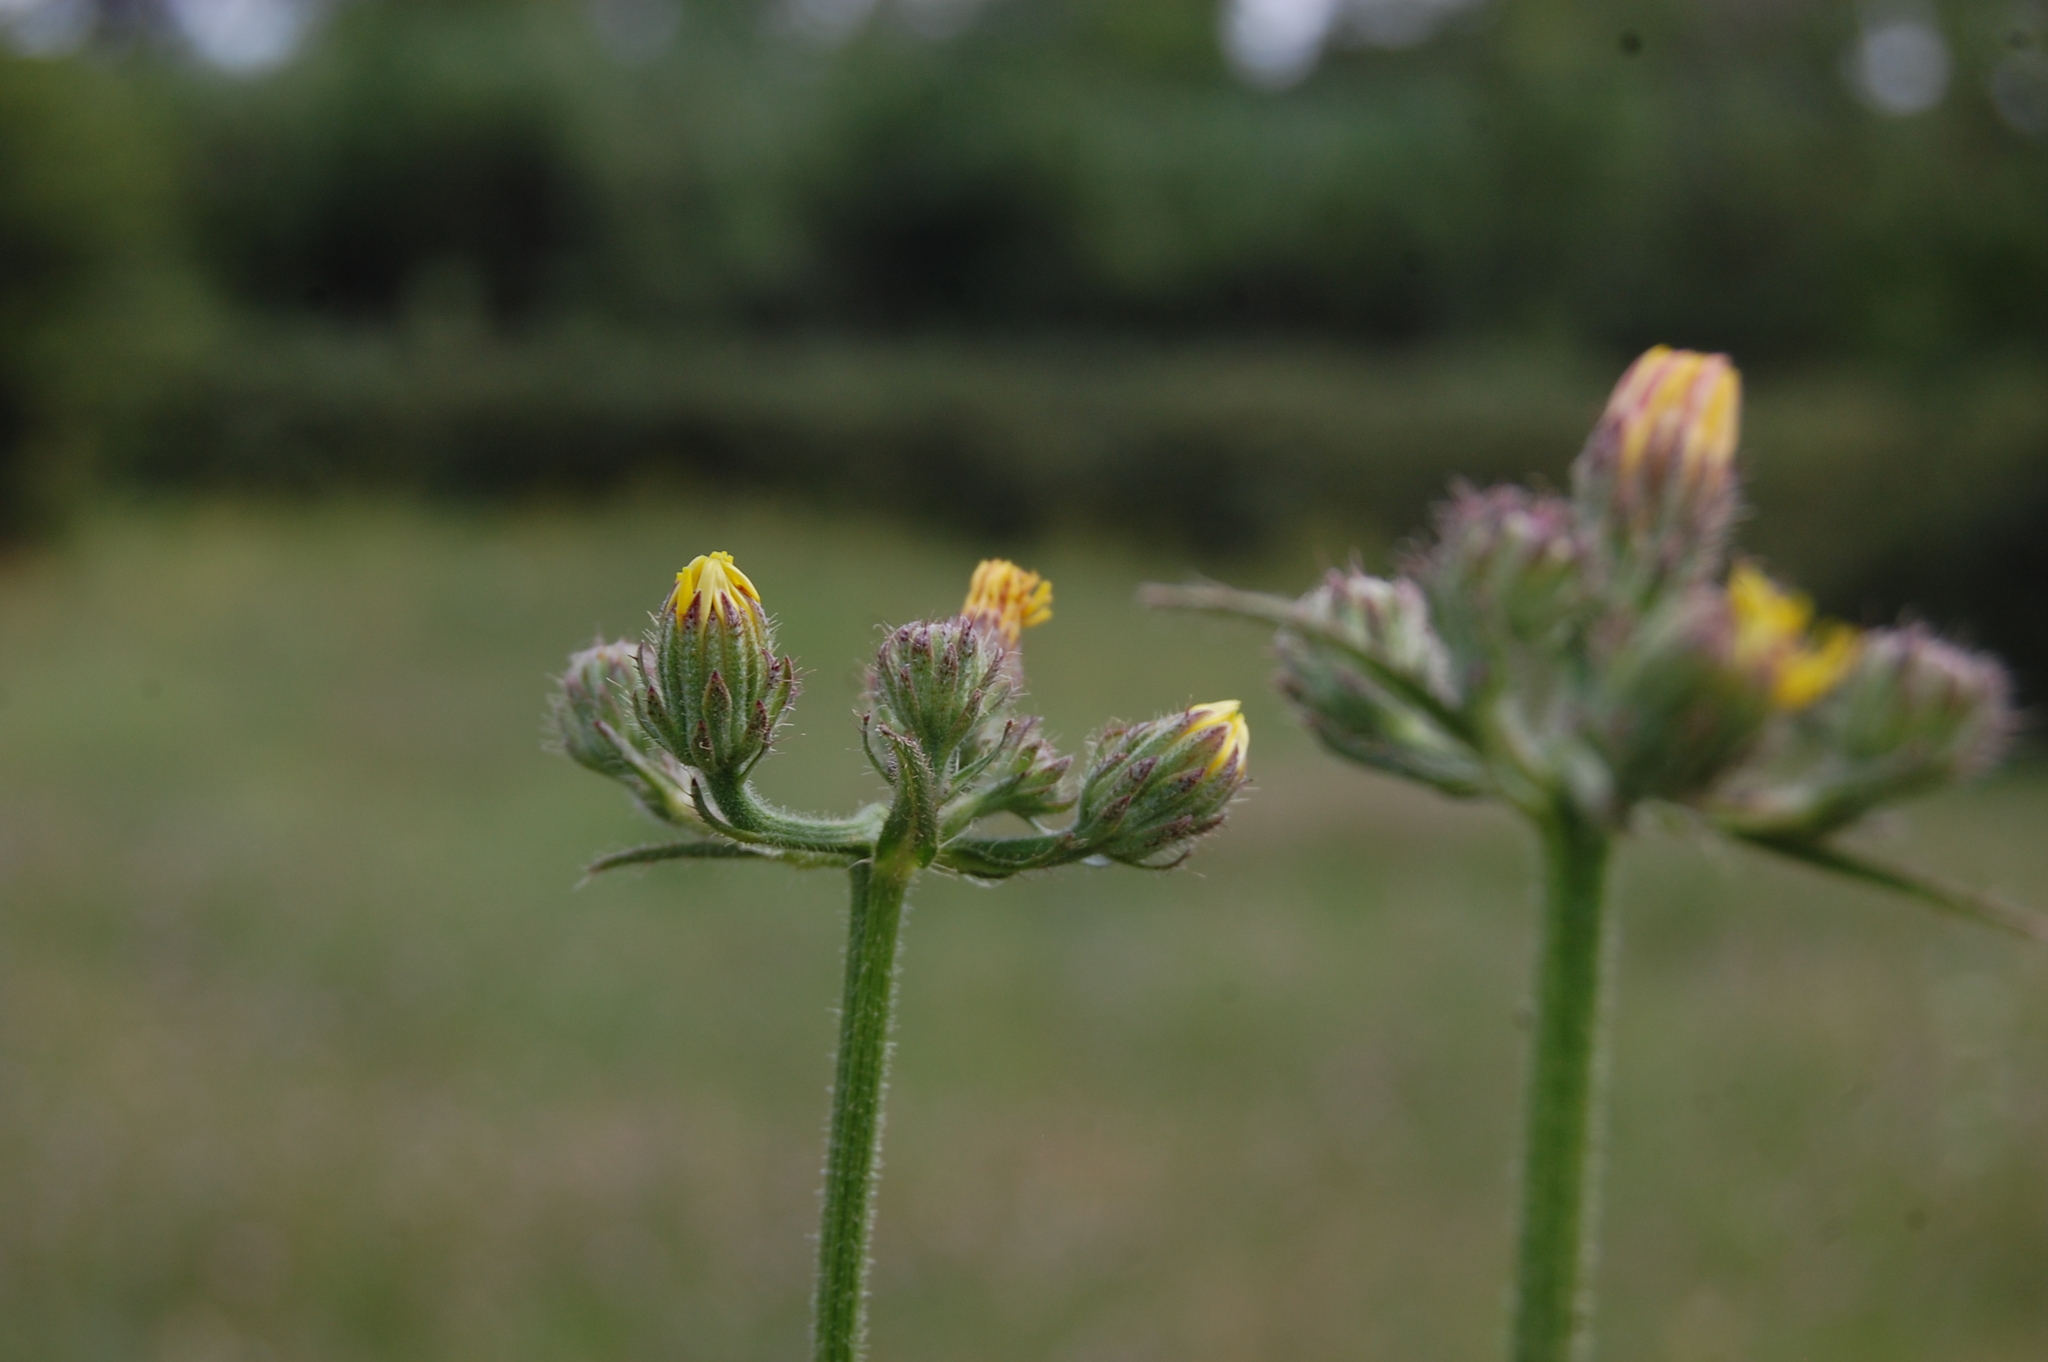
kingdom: Plantae
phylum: Tracheophyta
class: Magnoliopsida
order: Asterales
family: Asteraceae
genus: Crepis
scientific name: Crepis vesicaria
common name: Beaked hawksbeard
